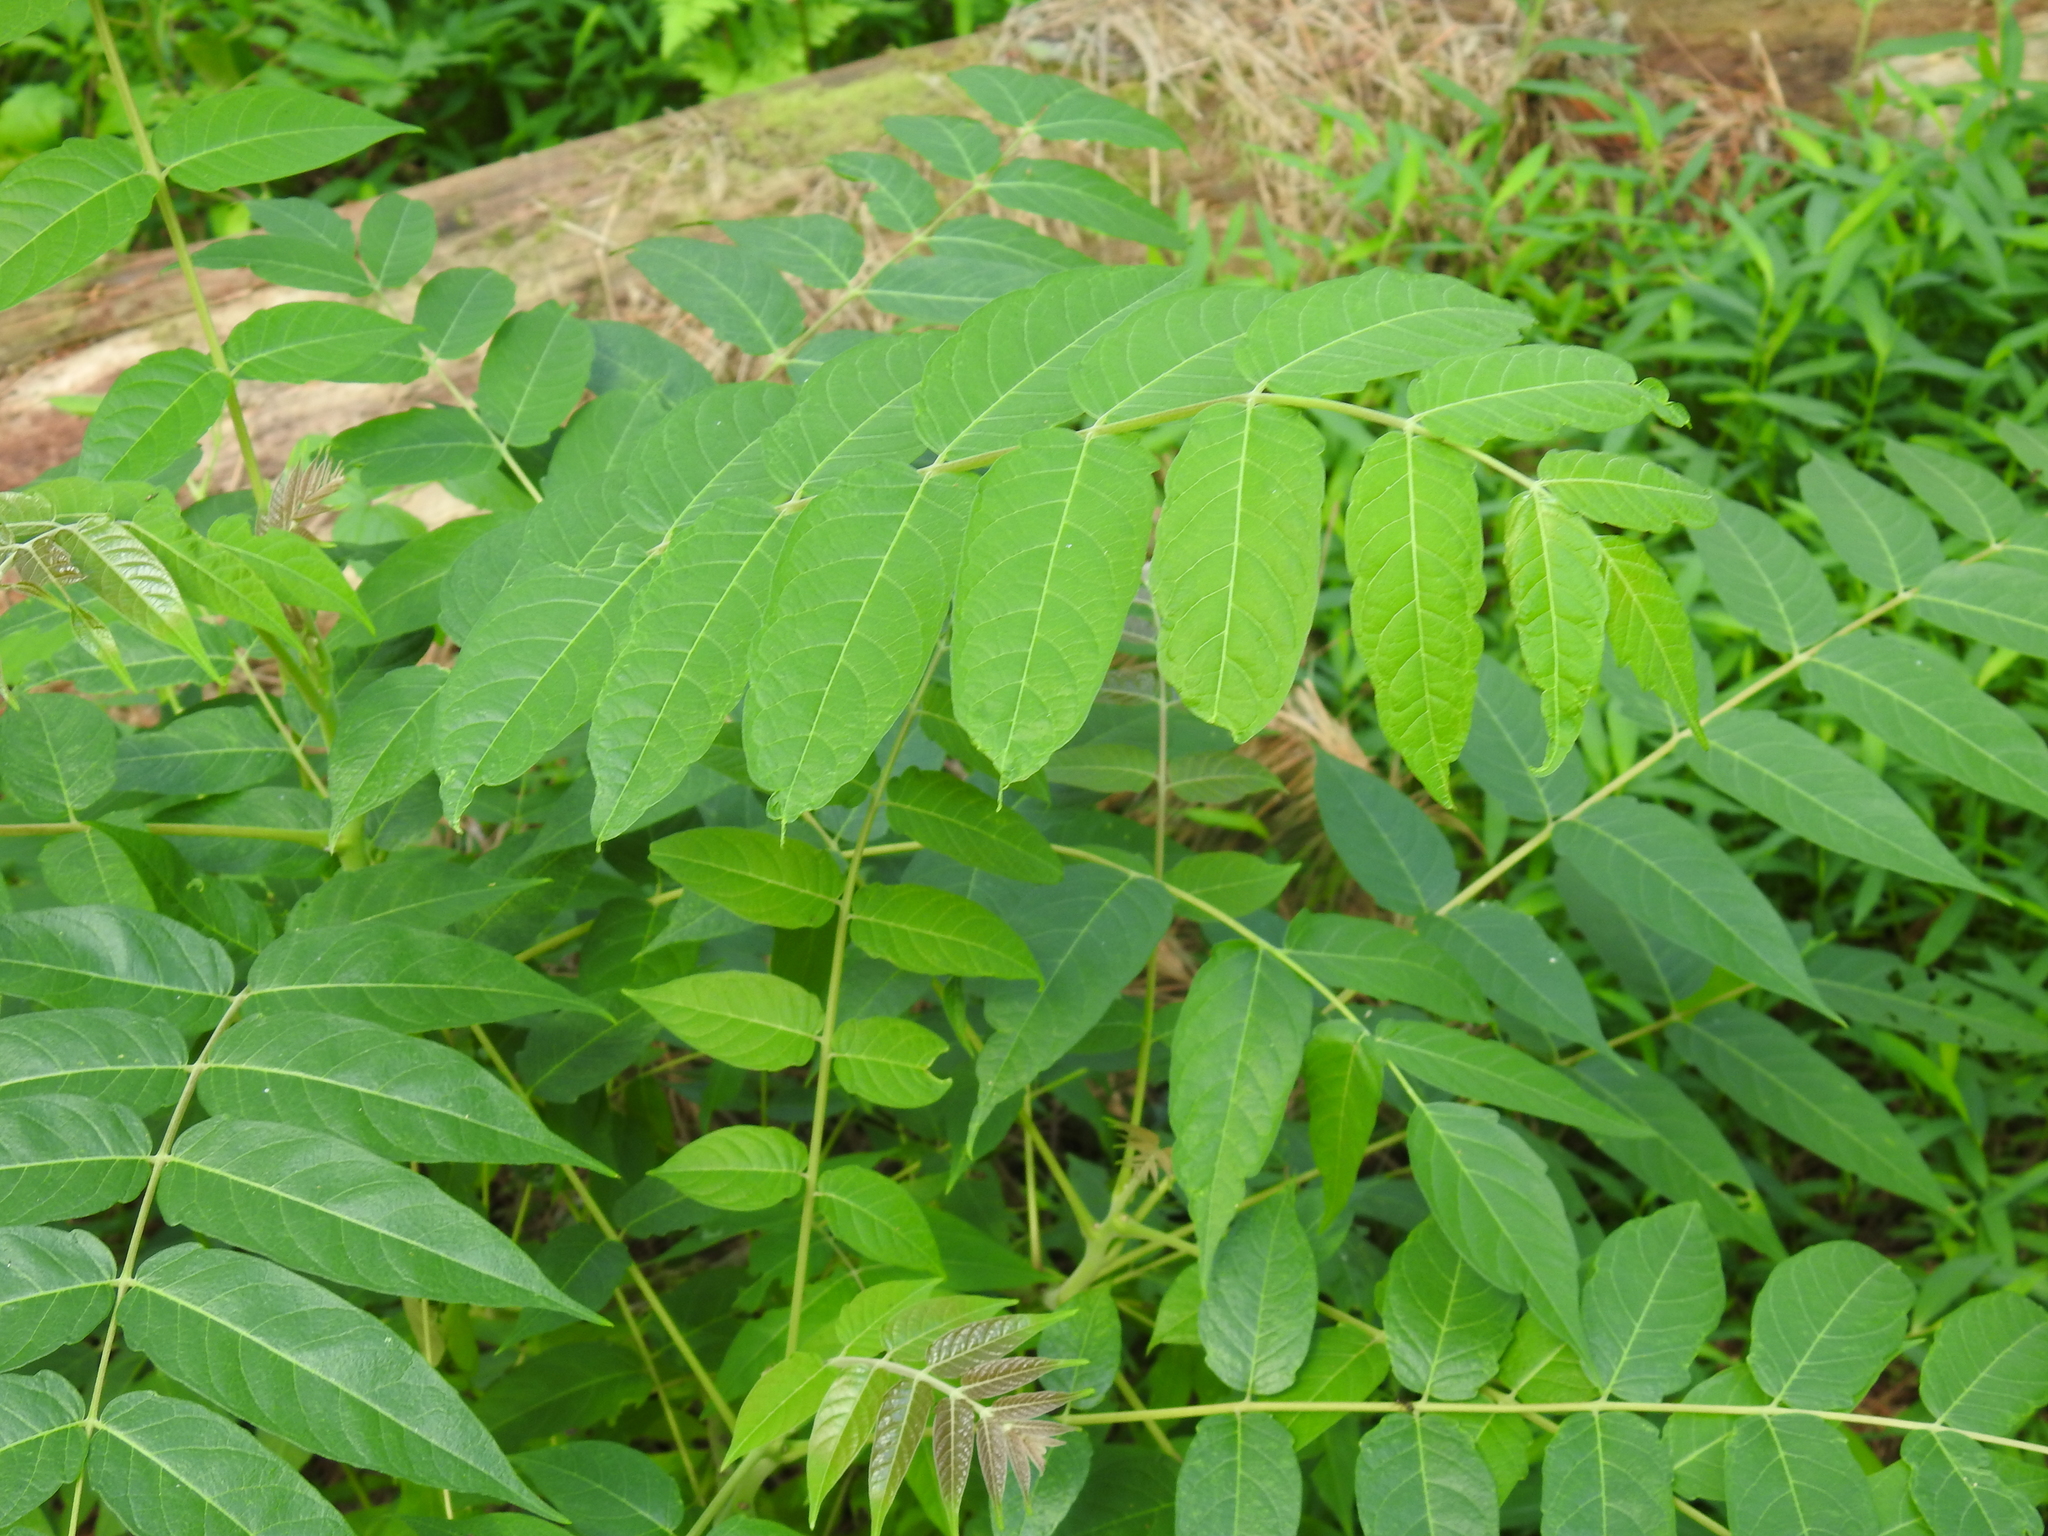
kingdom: Plantae
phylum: Tracheophyta
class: Magnoliopsida
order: Sapindales
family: Simaroubaceae
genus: Ailanthus
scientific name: Ailanthus altissima
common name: Tree-of-heaven
